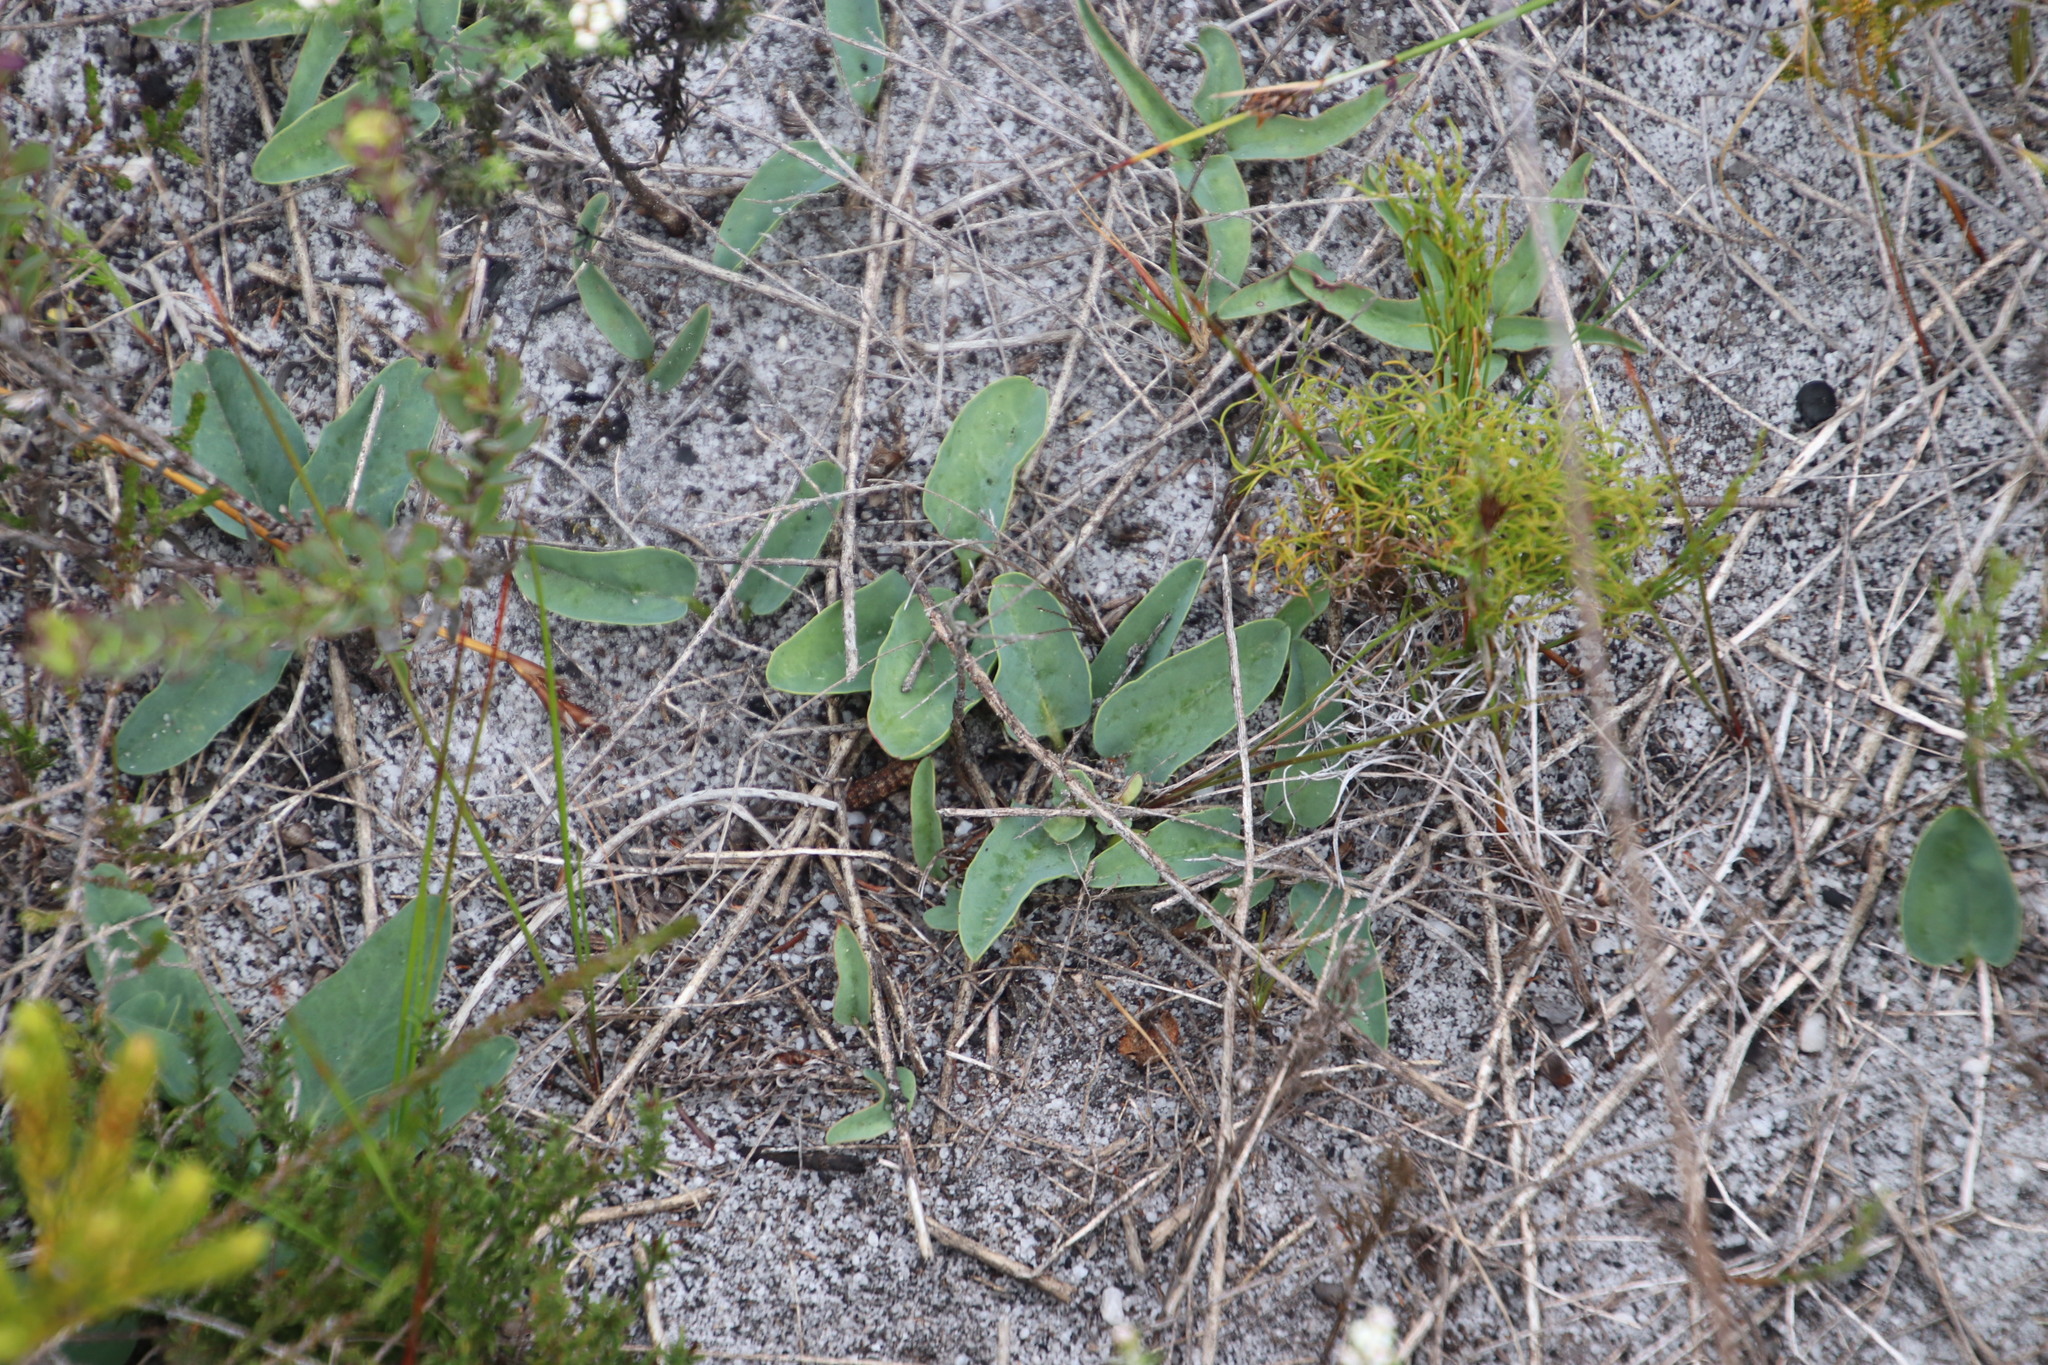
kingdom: Plantae
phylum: Tracheophyta
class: Magnoliopsida
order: Malpighiales
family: Euphorbiaceae
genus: Euphorbia
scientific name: Euphorbia tuberosa
